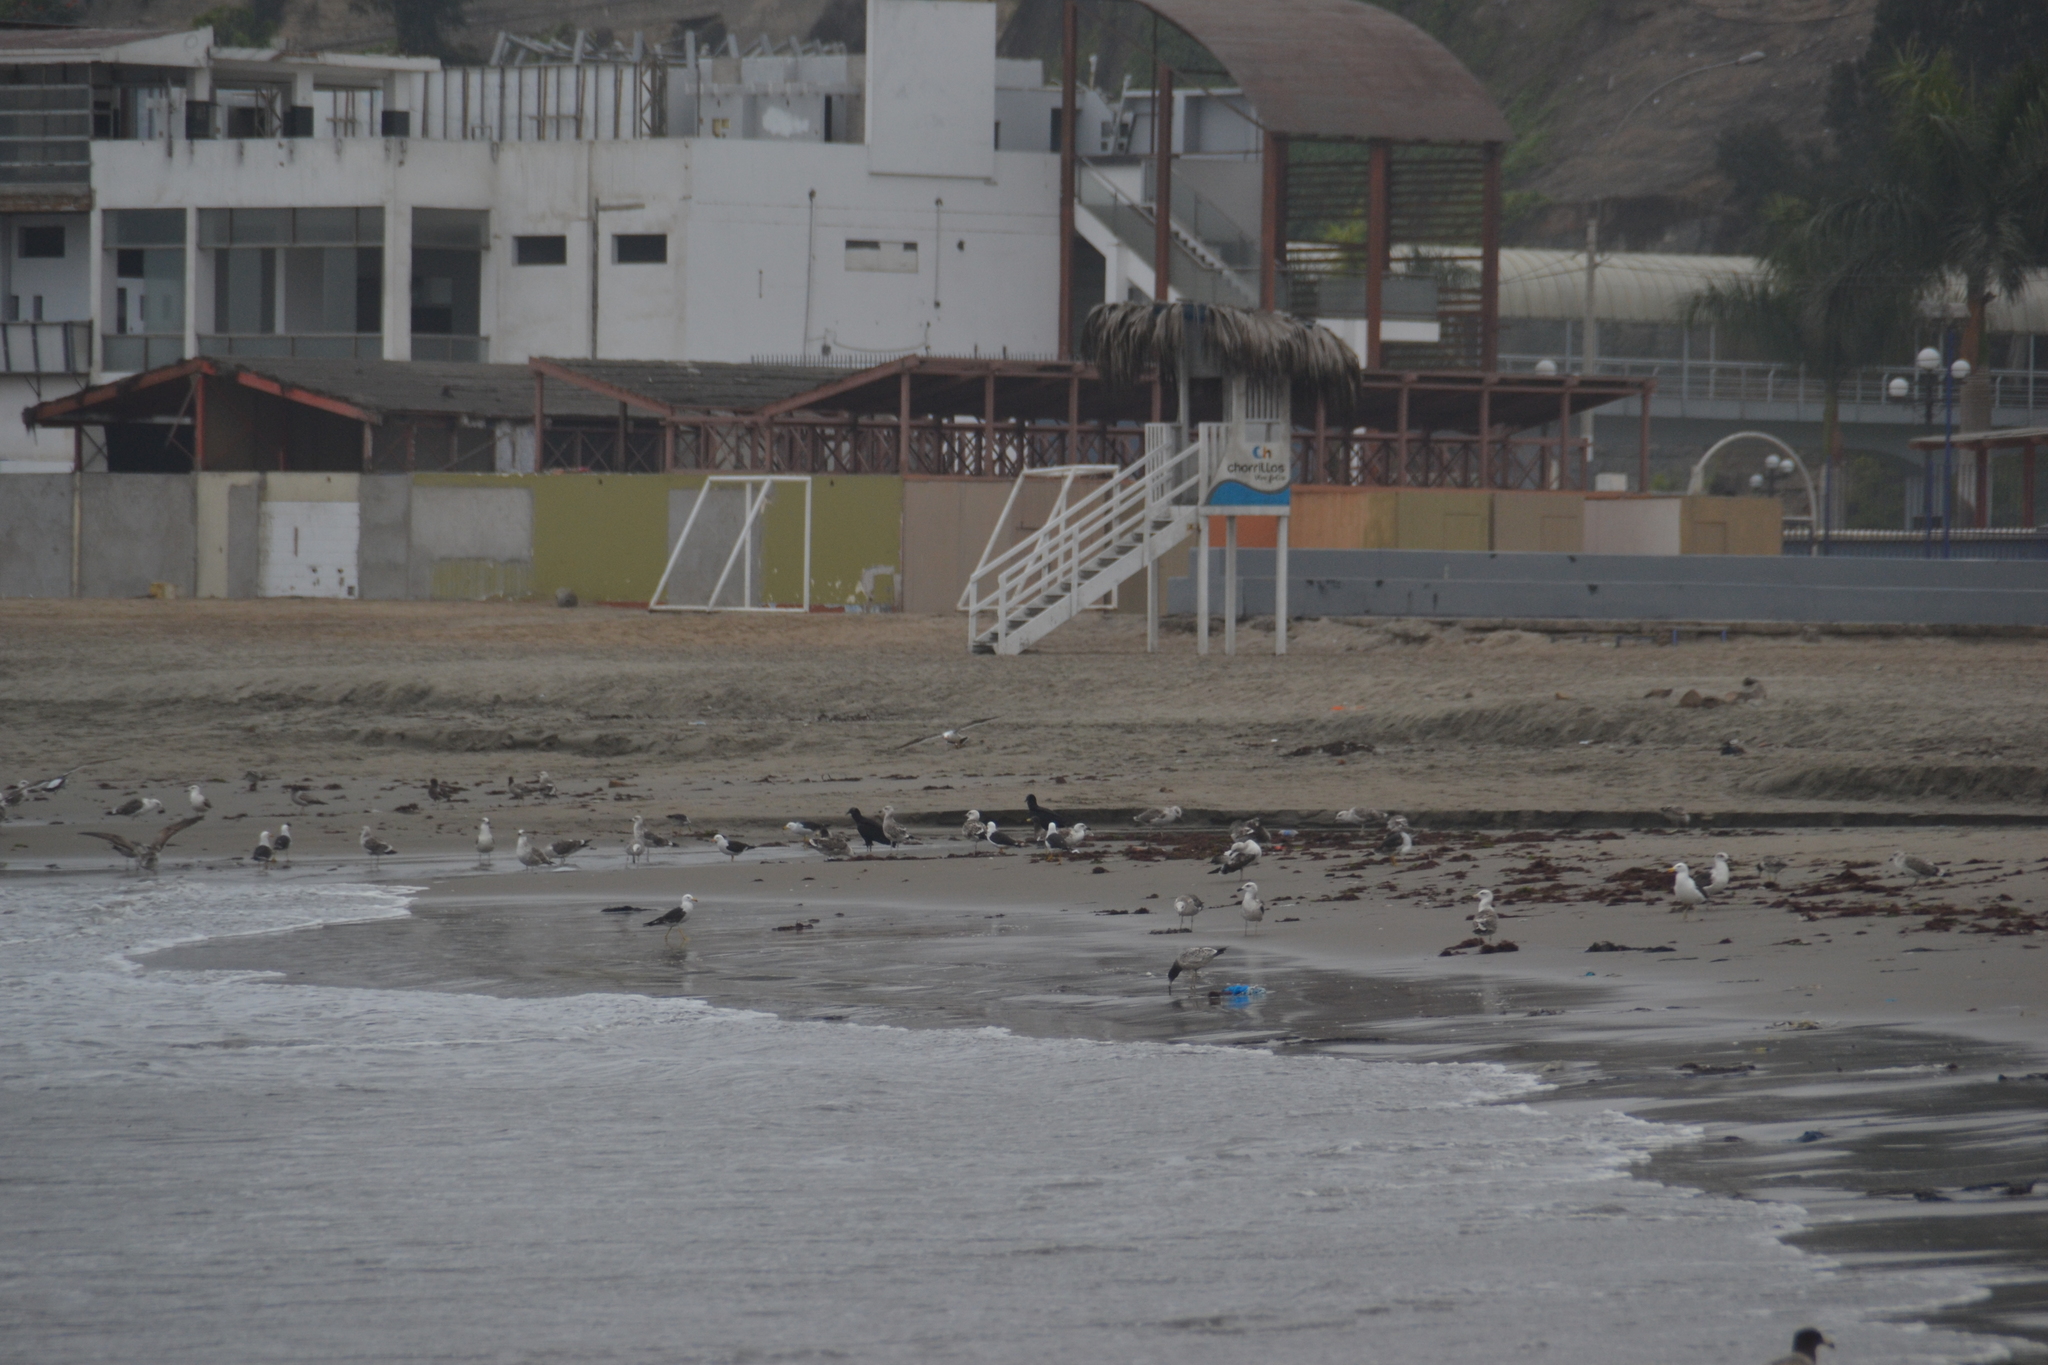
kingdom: Animalia
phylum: Chordata
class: Aves
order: Accipitriformes
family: Cathartidae
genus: Coragyps
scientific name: Coragyps atratus
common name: Black vulture
